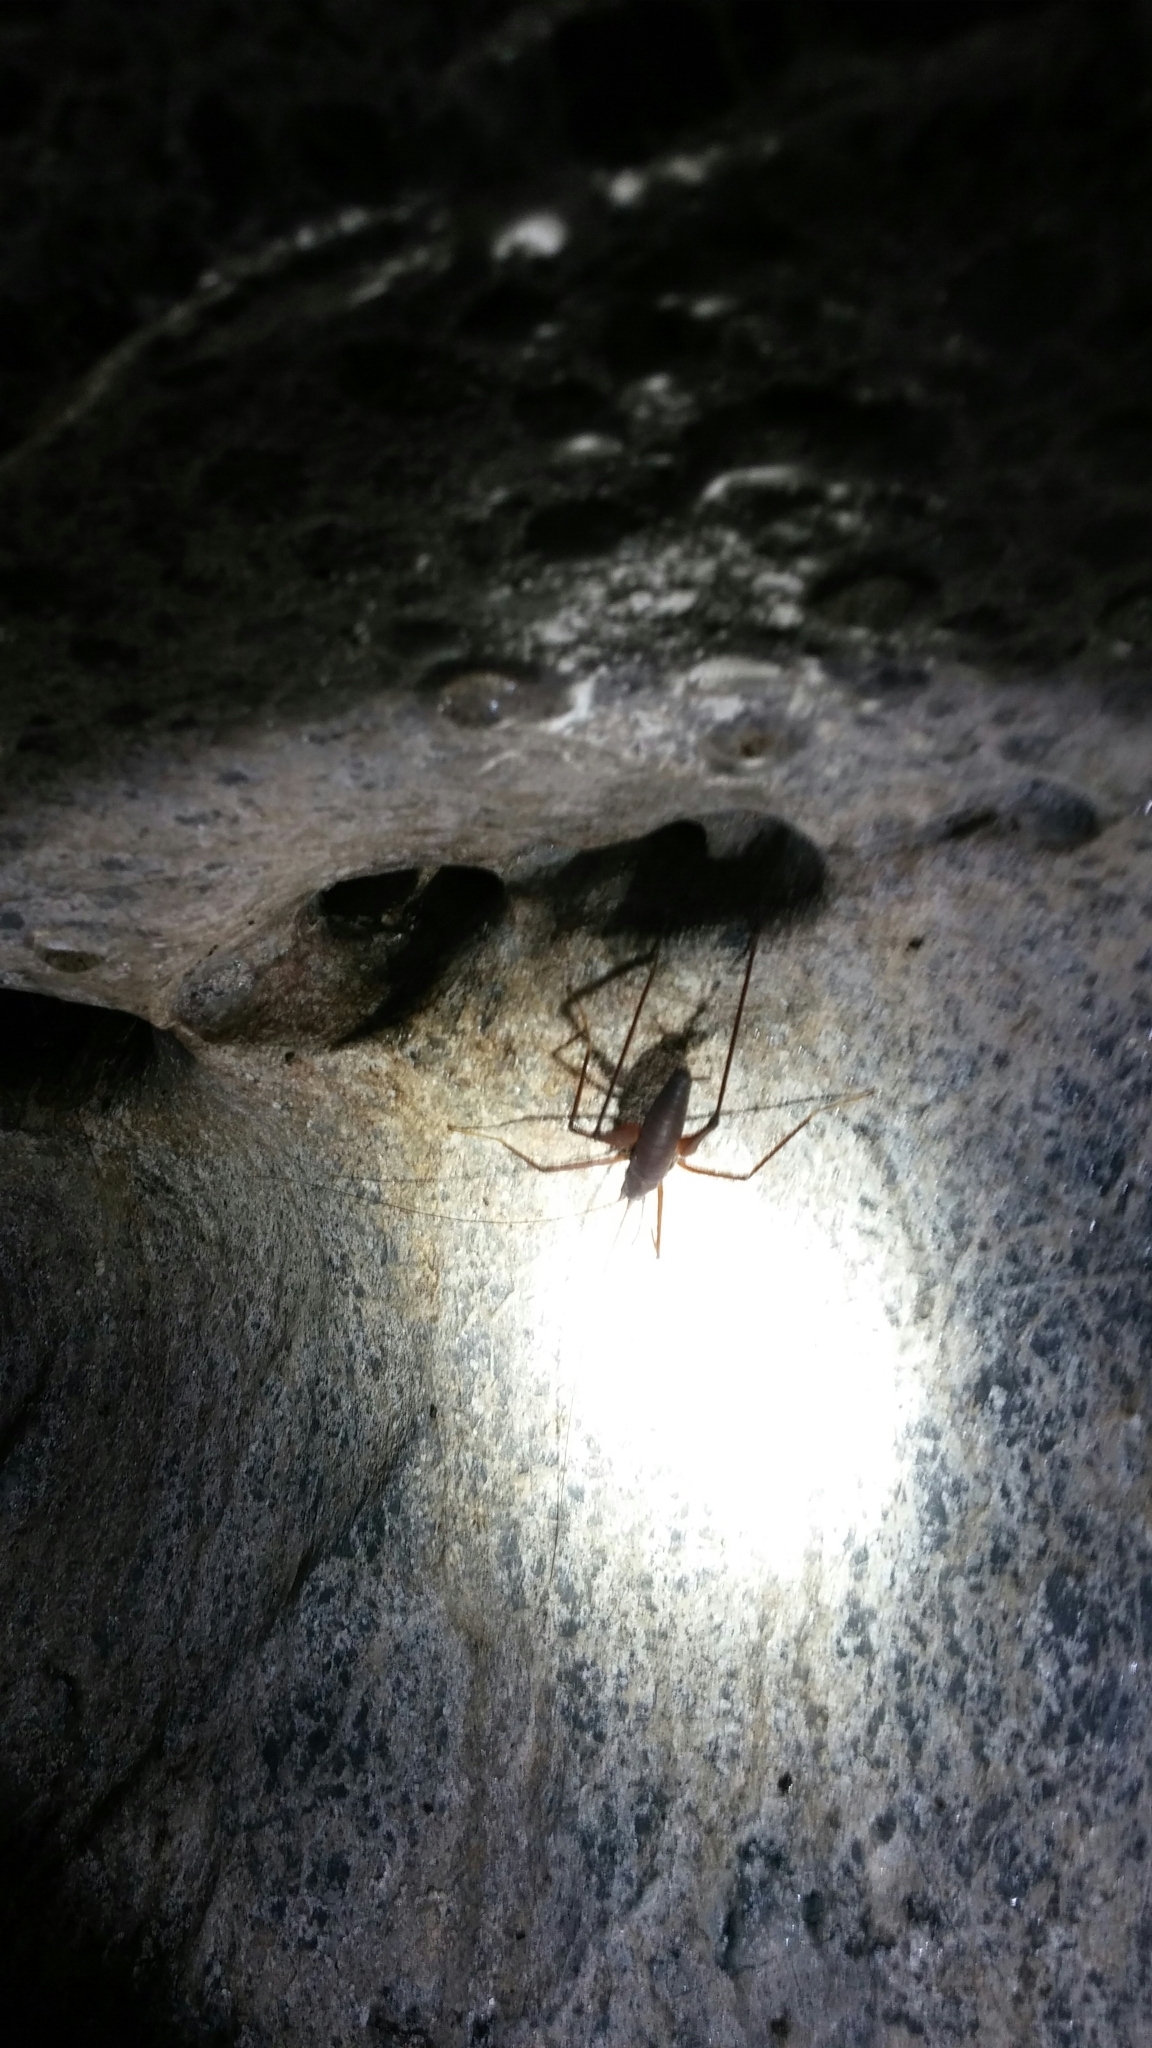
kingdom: Animalia
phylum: Arthropoda
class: Insecta
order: Orthoptera
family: Rhaphidophoridae
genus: Tropidischia
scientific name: Tropidischia xanthostoma
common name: Square-legged camel cricket
